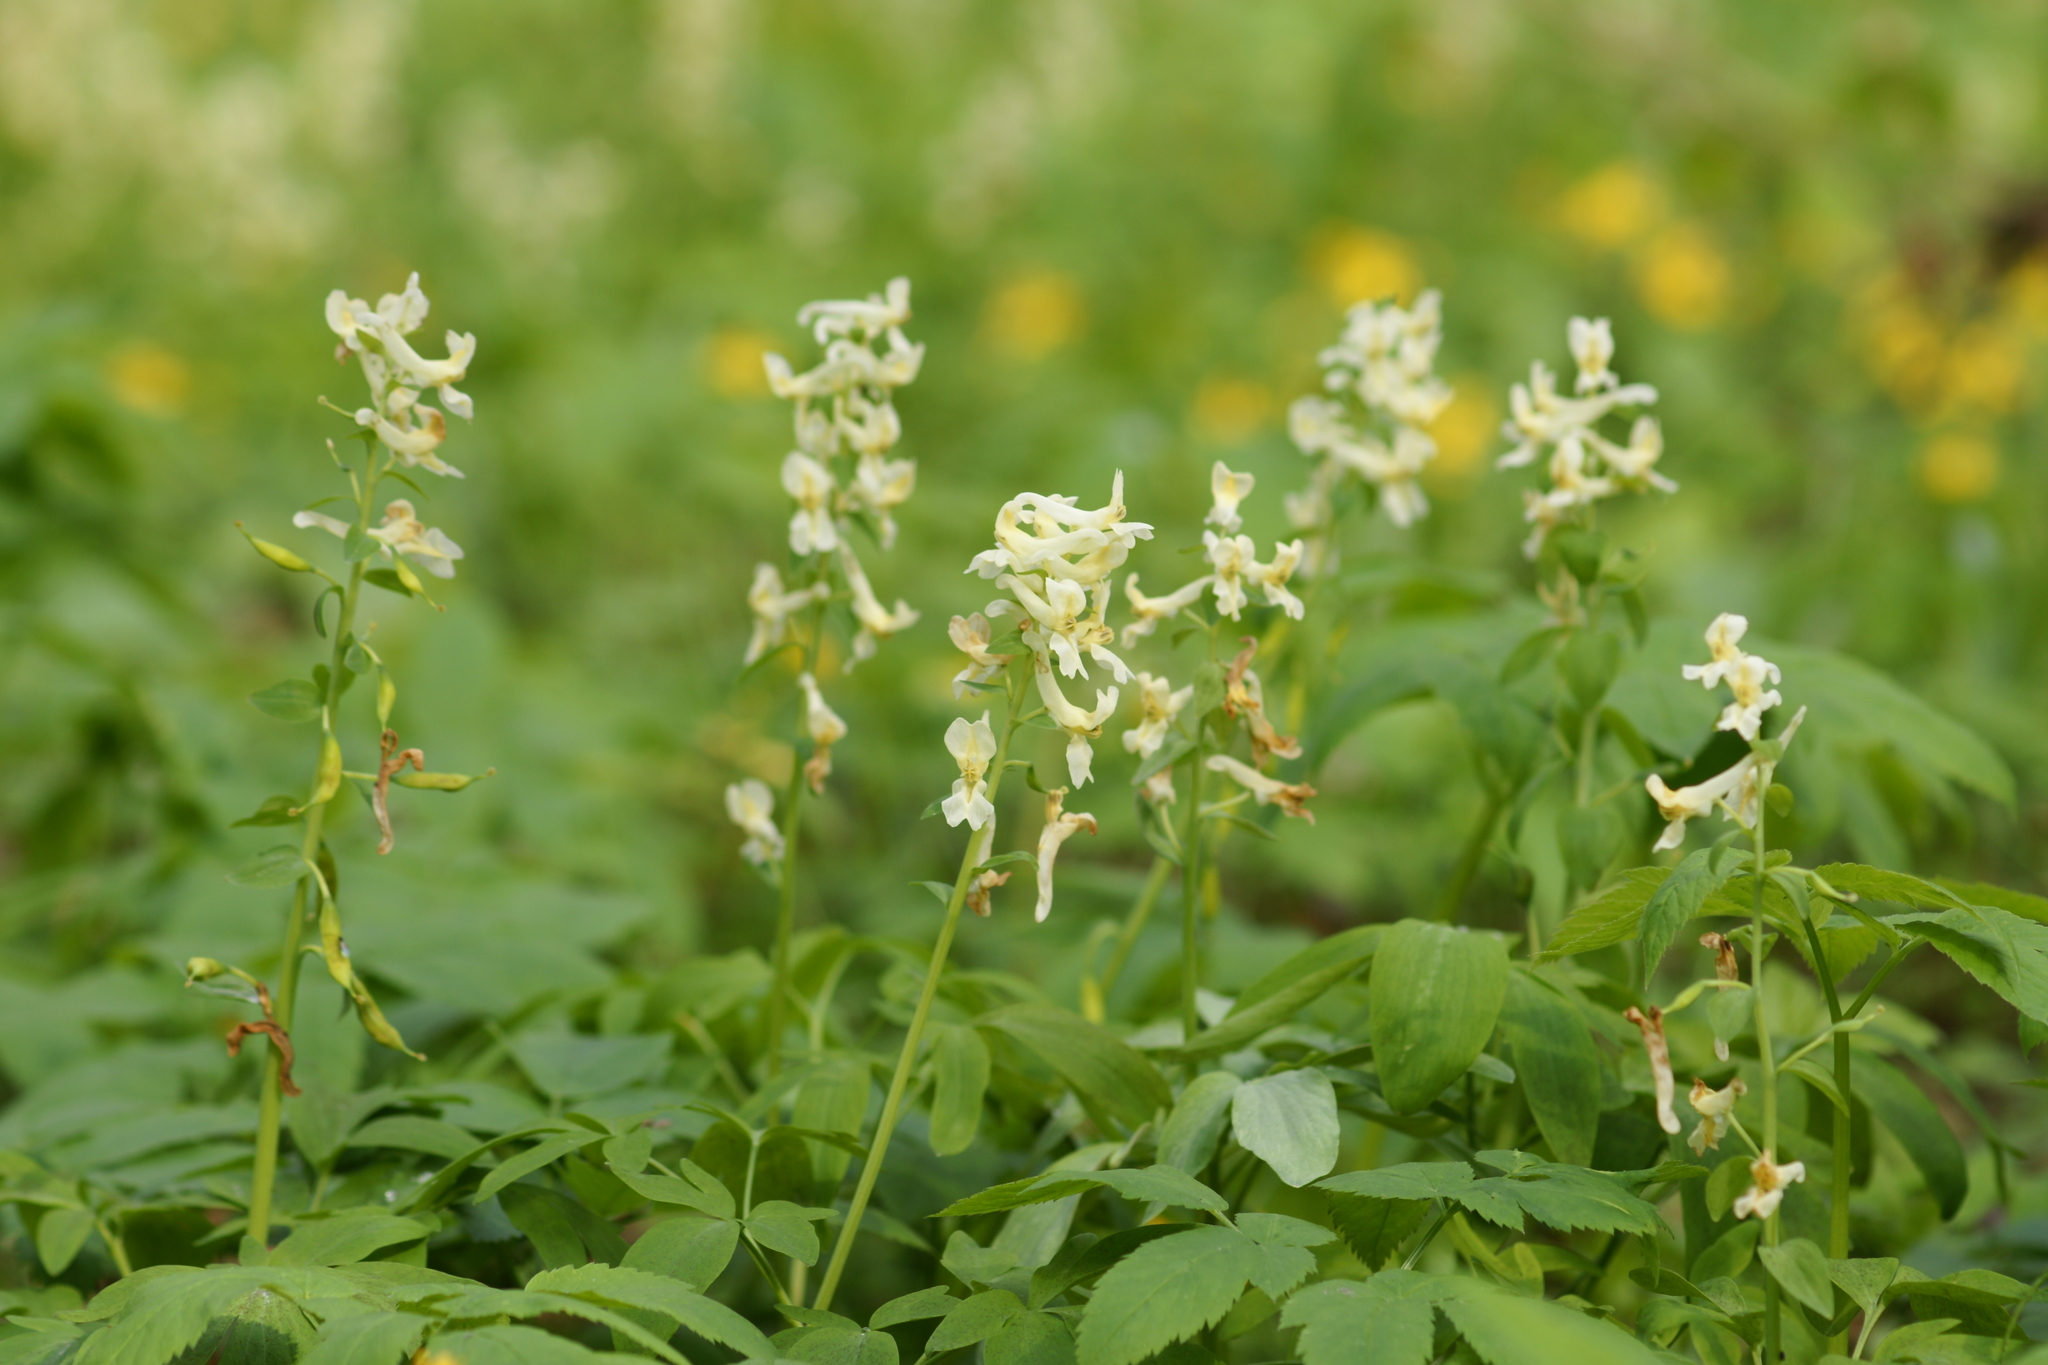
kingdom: Plantae
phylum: Tracheophyta
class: Magnoliopsida
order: Ranunculales
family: Papaveraceae
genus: Corydalis
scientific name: Corydalis cava
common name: Hollowroot
